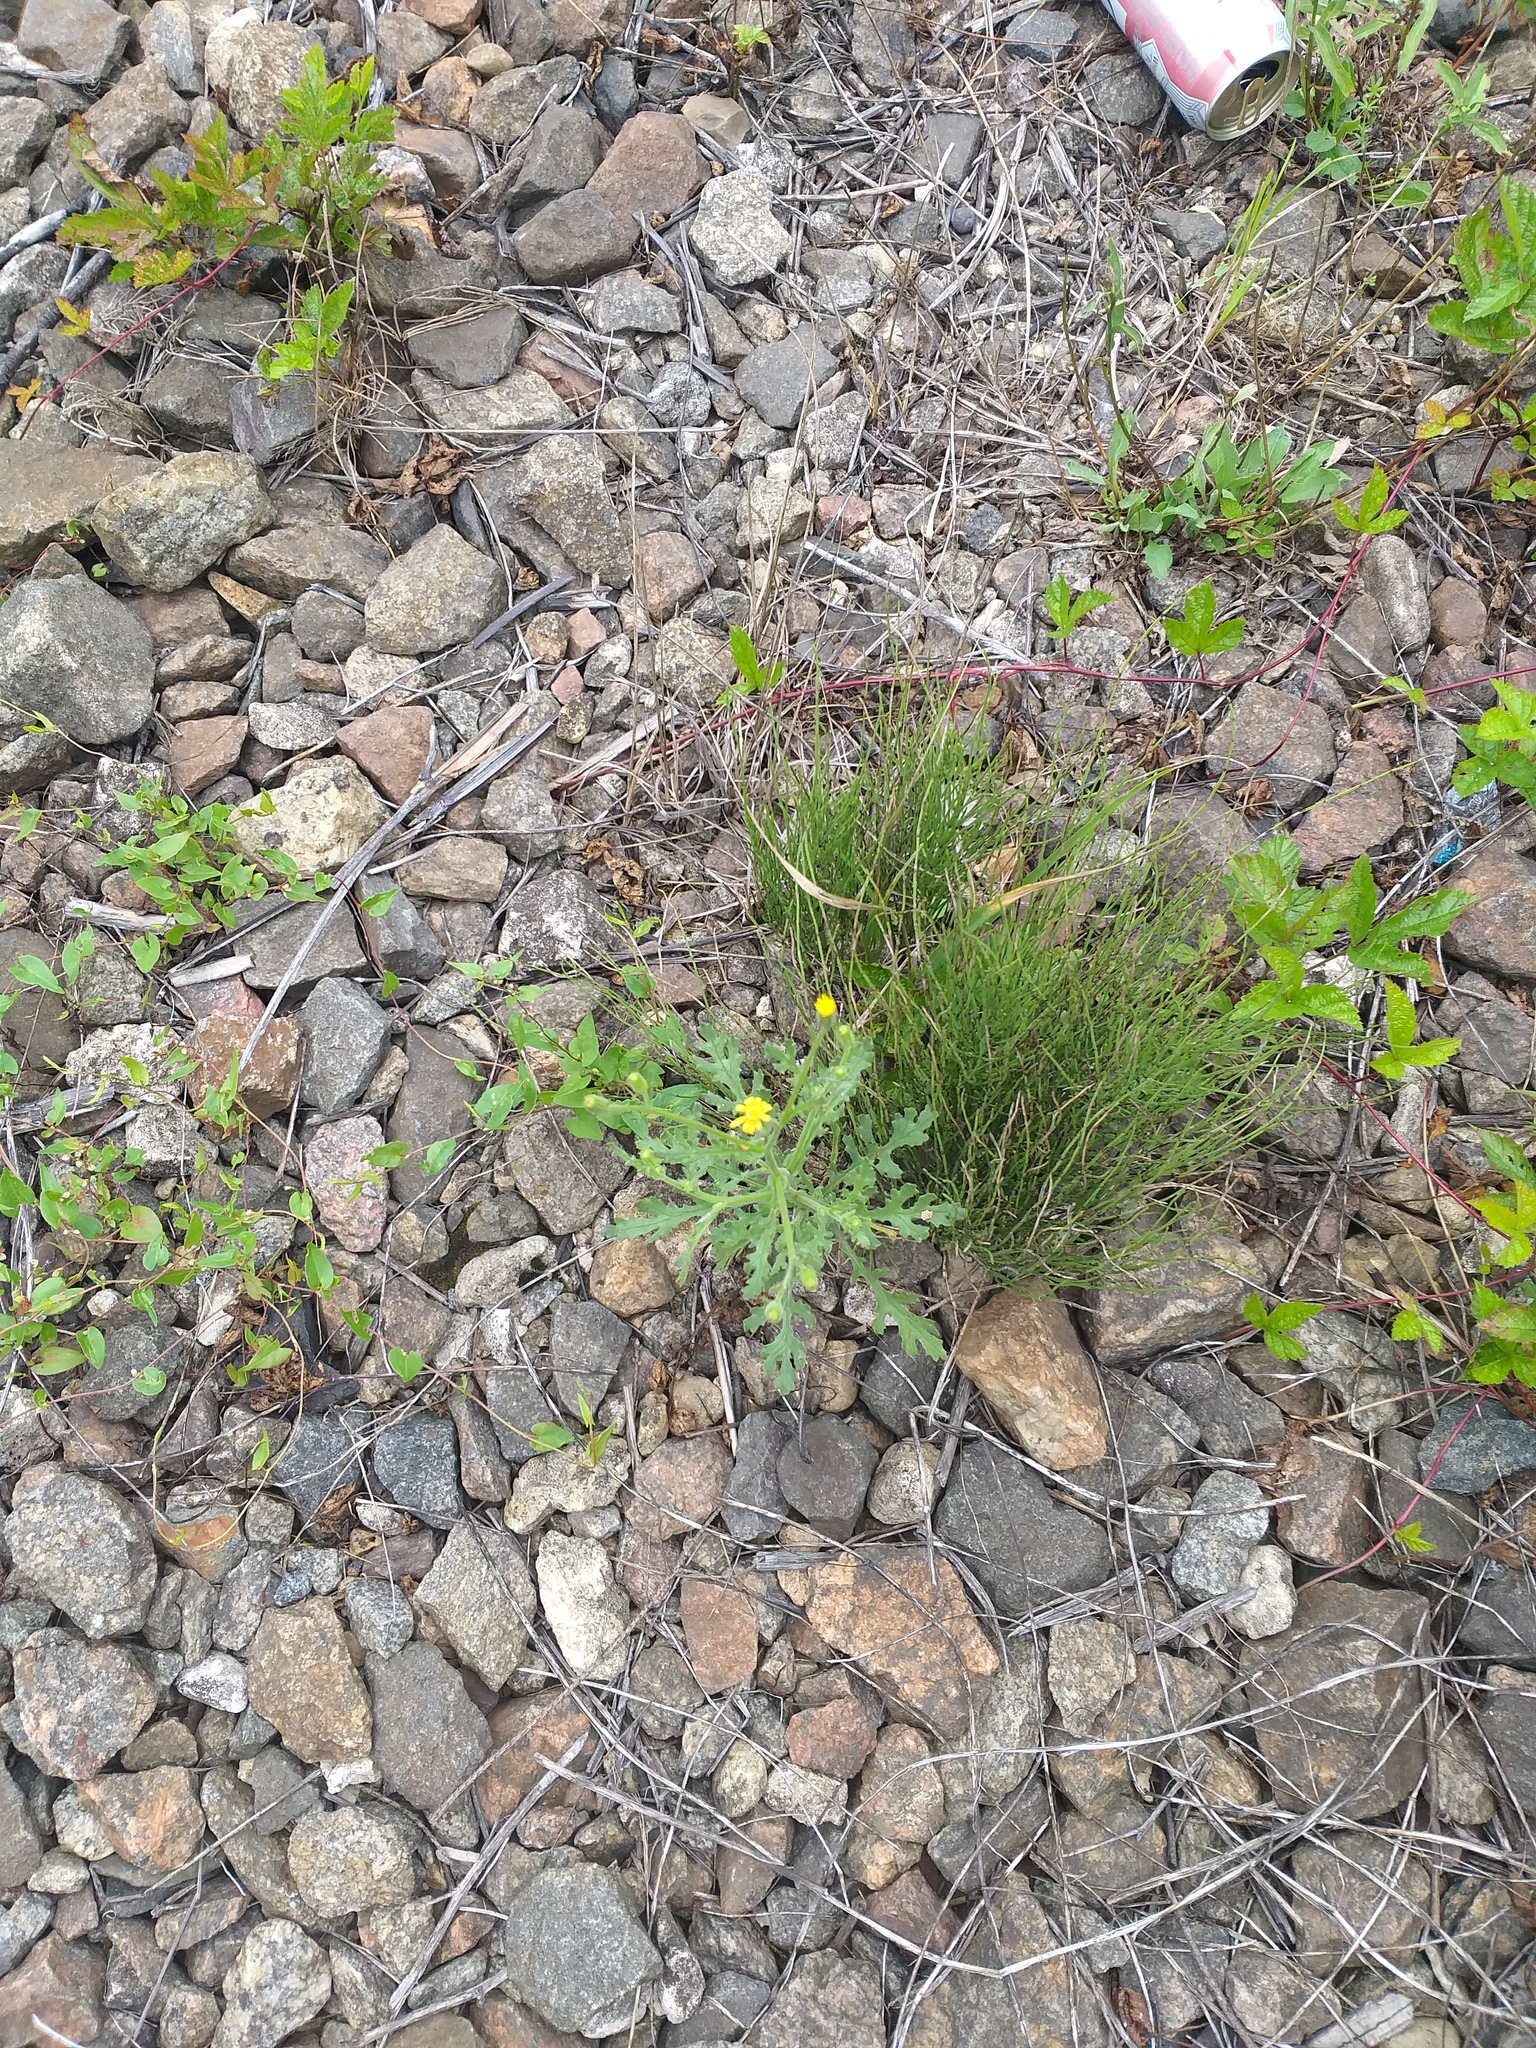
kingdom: Plantae
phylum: Tracheophyta
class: Magnoliopsida
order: Asterales
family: Asteraceae
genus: Senecio
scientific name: Senecio viscosus
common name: Sticky groundsel
